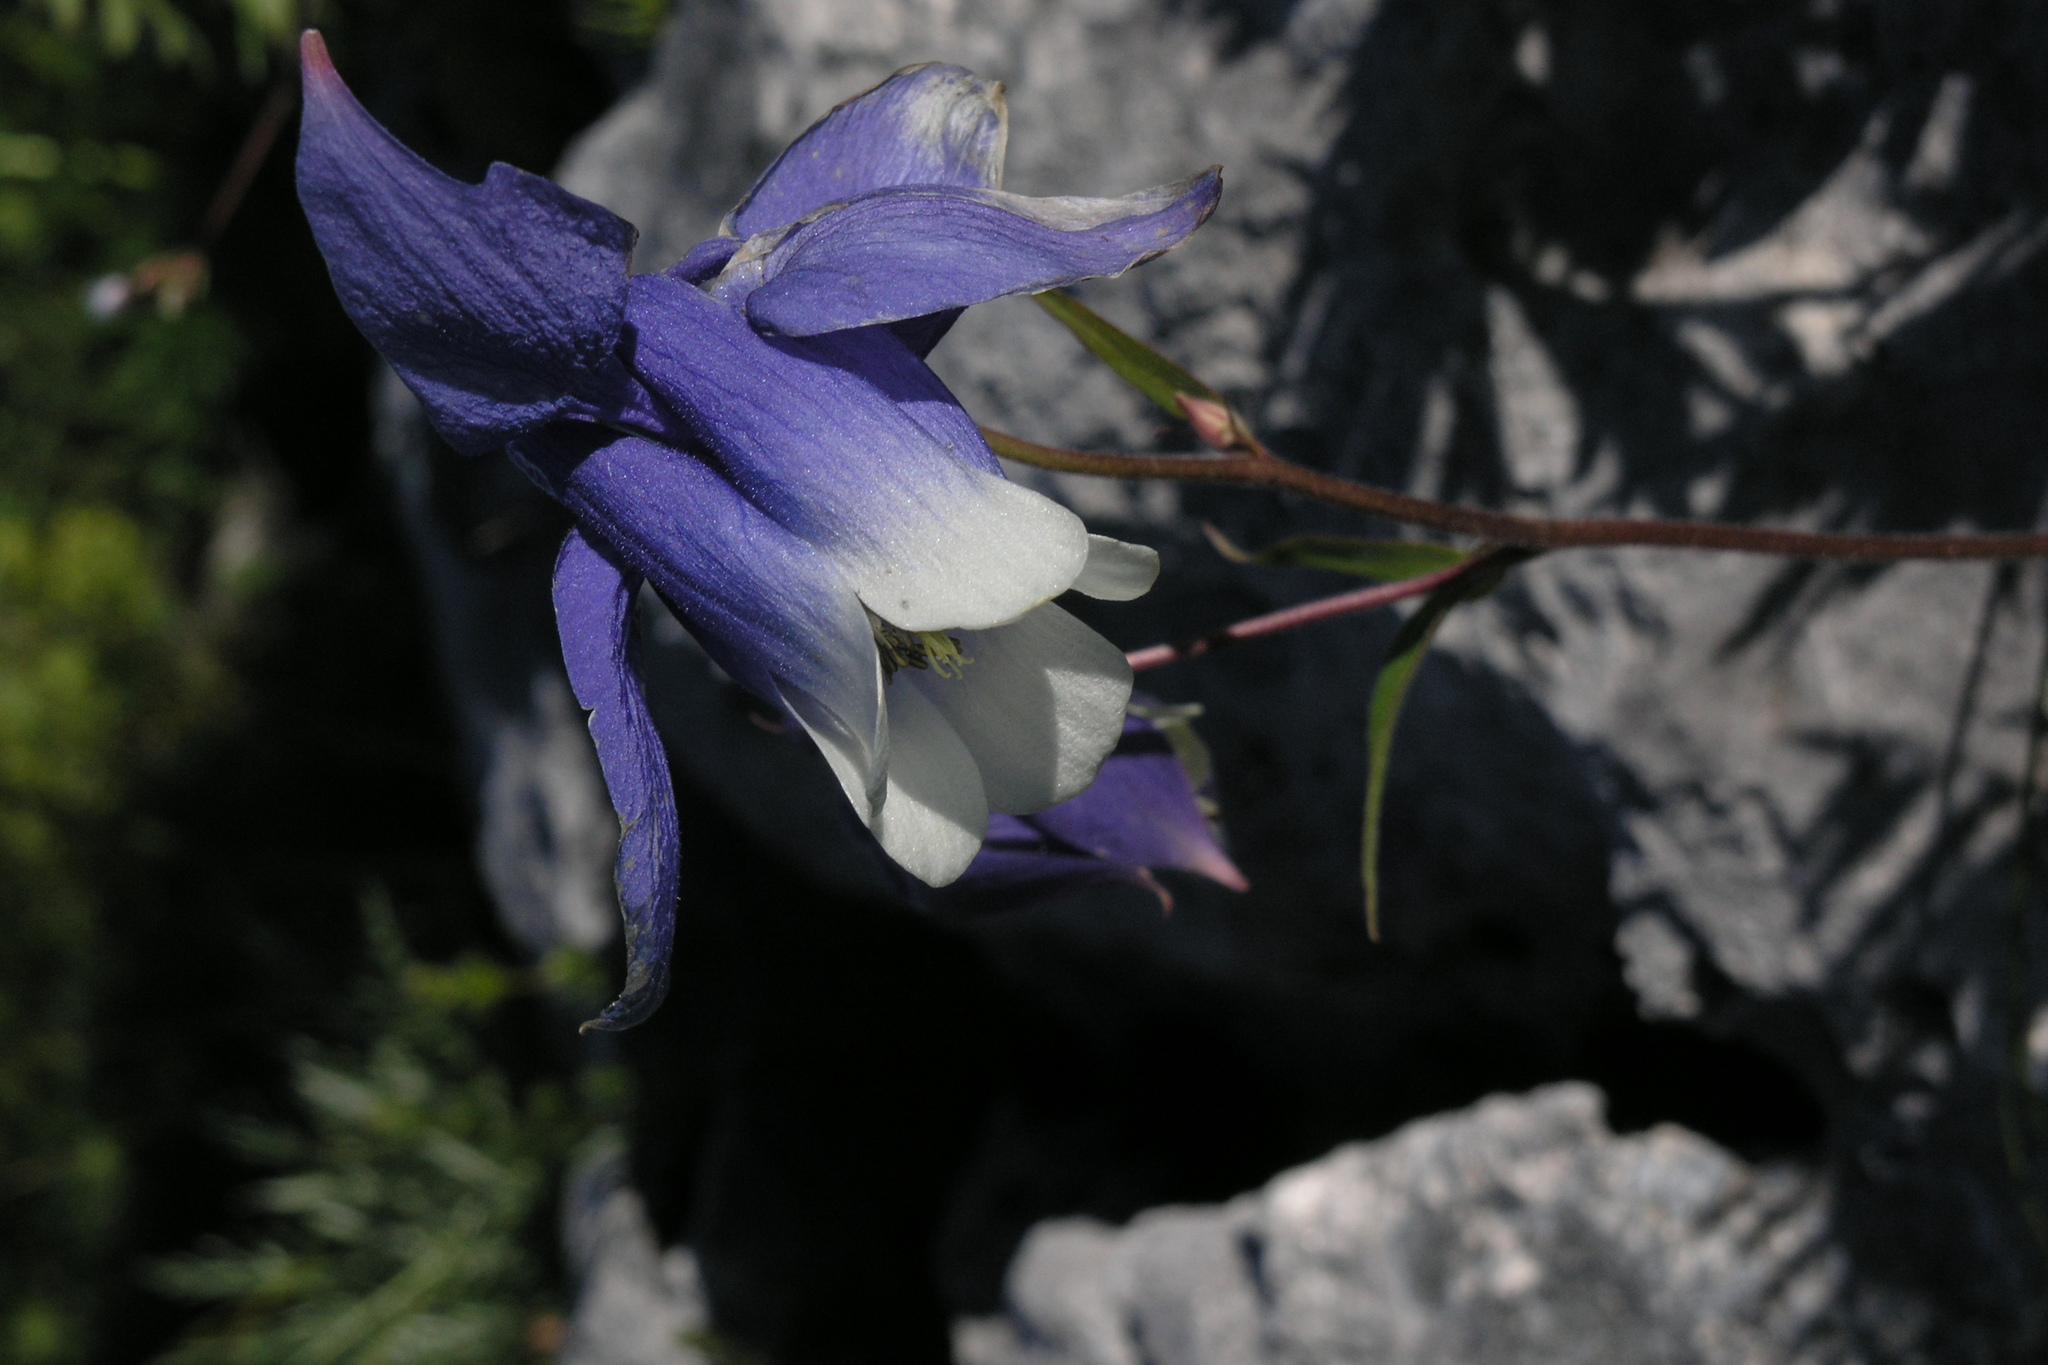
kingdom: Plantae
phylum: Tracheophyta
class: Magnoliopsida
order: Ranunculales
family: Ranunculaceae
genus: Aquilegia
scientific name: Aquilegia olympica
